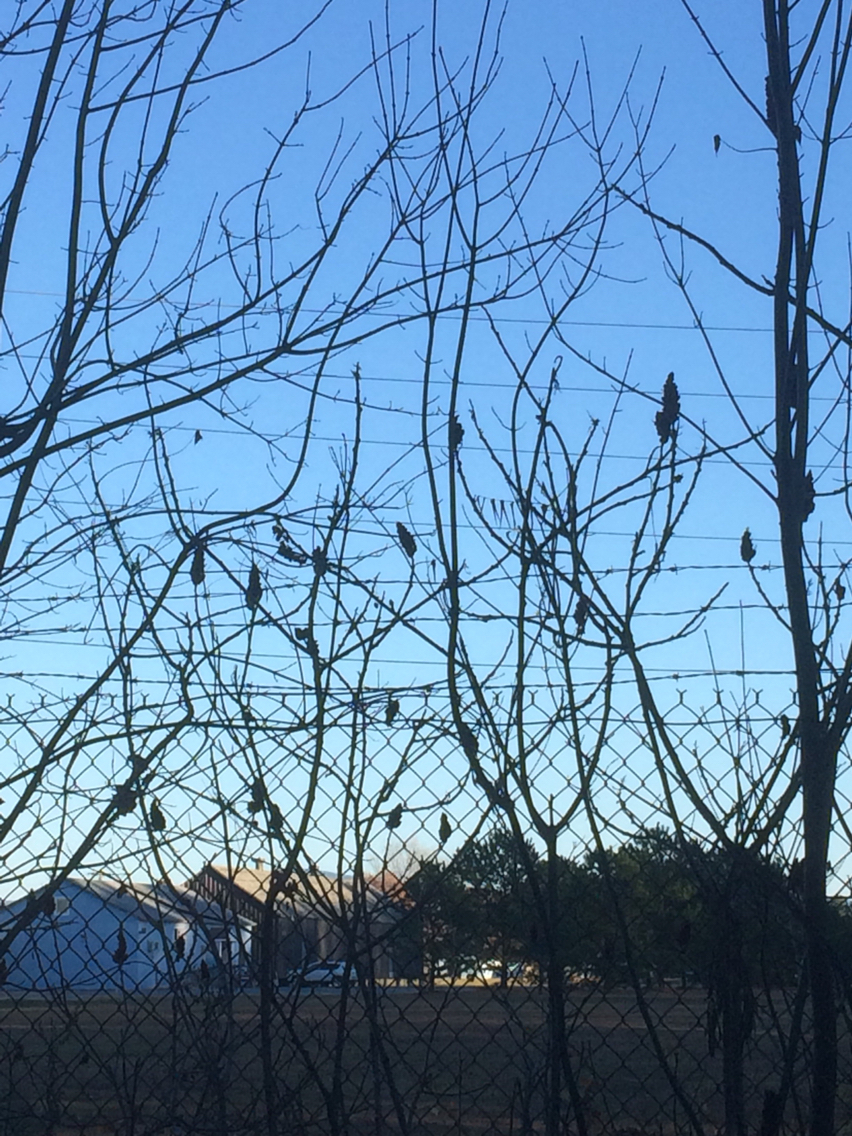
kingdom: Plantae
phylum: Tracheophyta
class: Magnoliopsida
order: Sapindales
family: Anacardiaceae
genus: Rhus
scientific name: Rhus typhina
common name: Staghorn sumac
